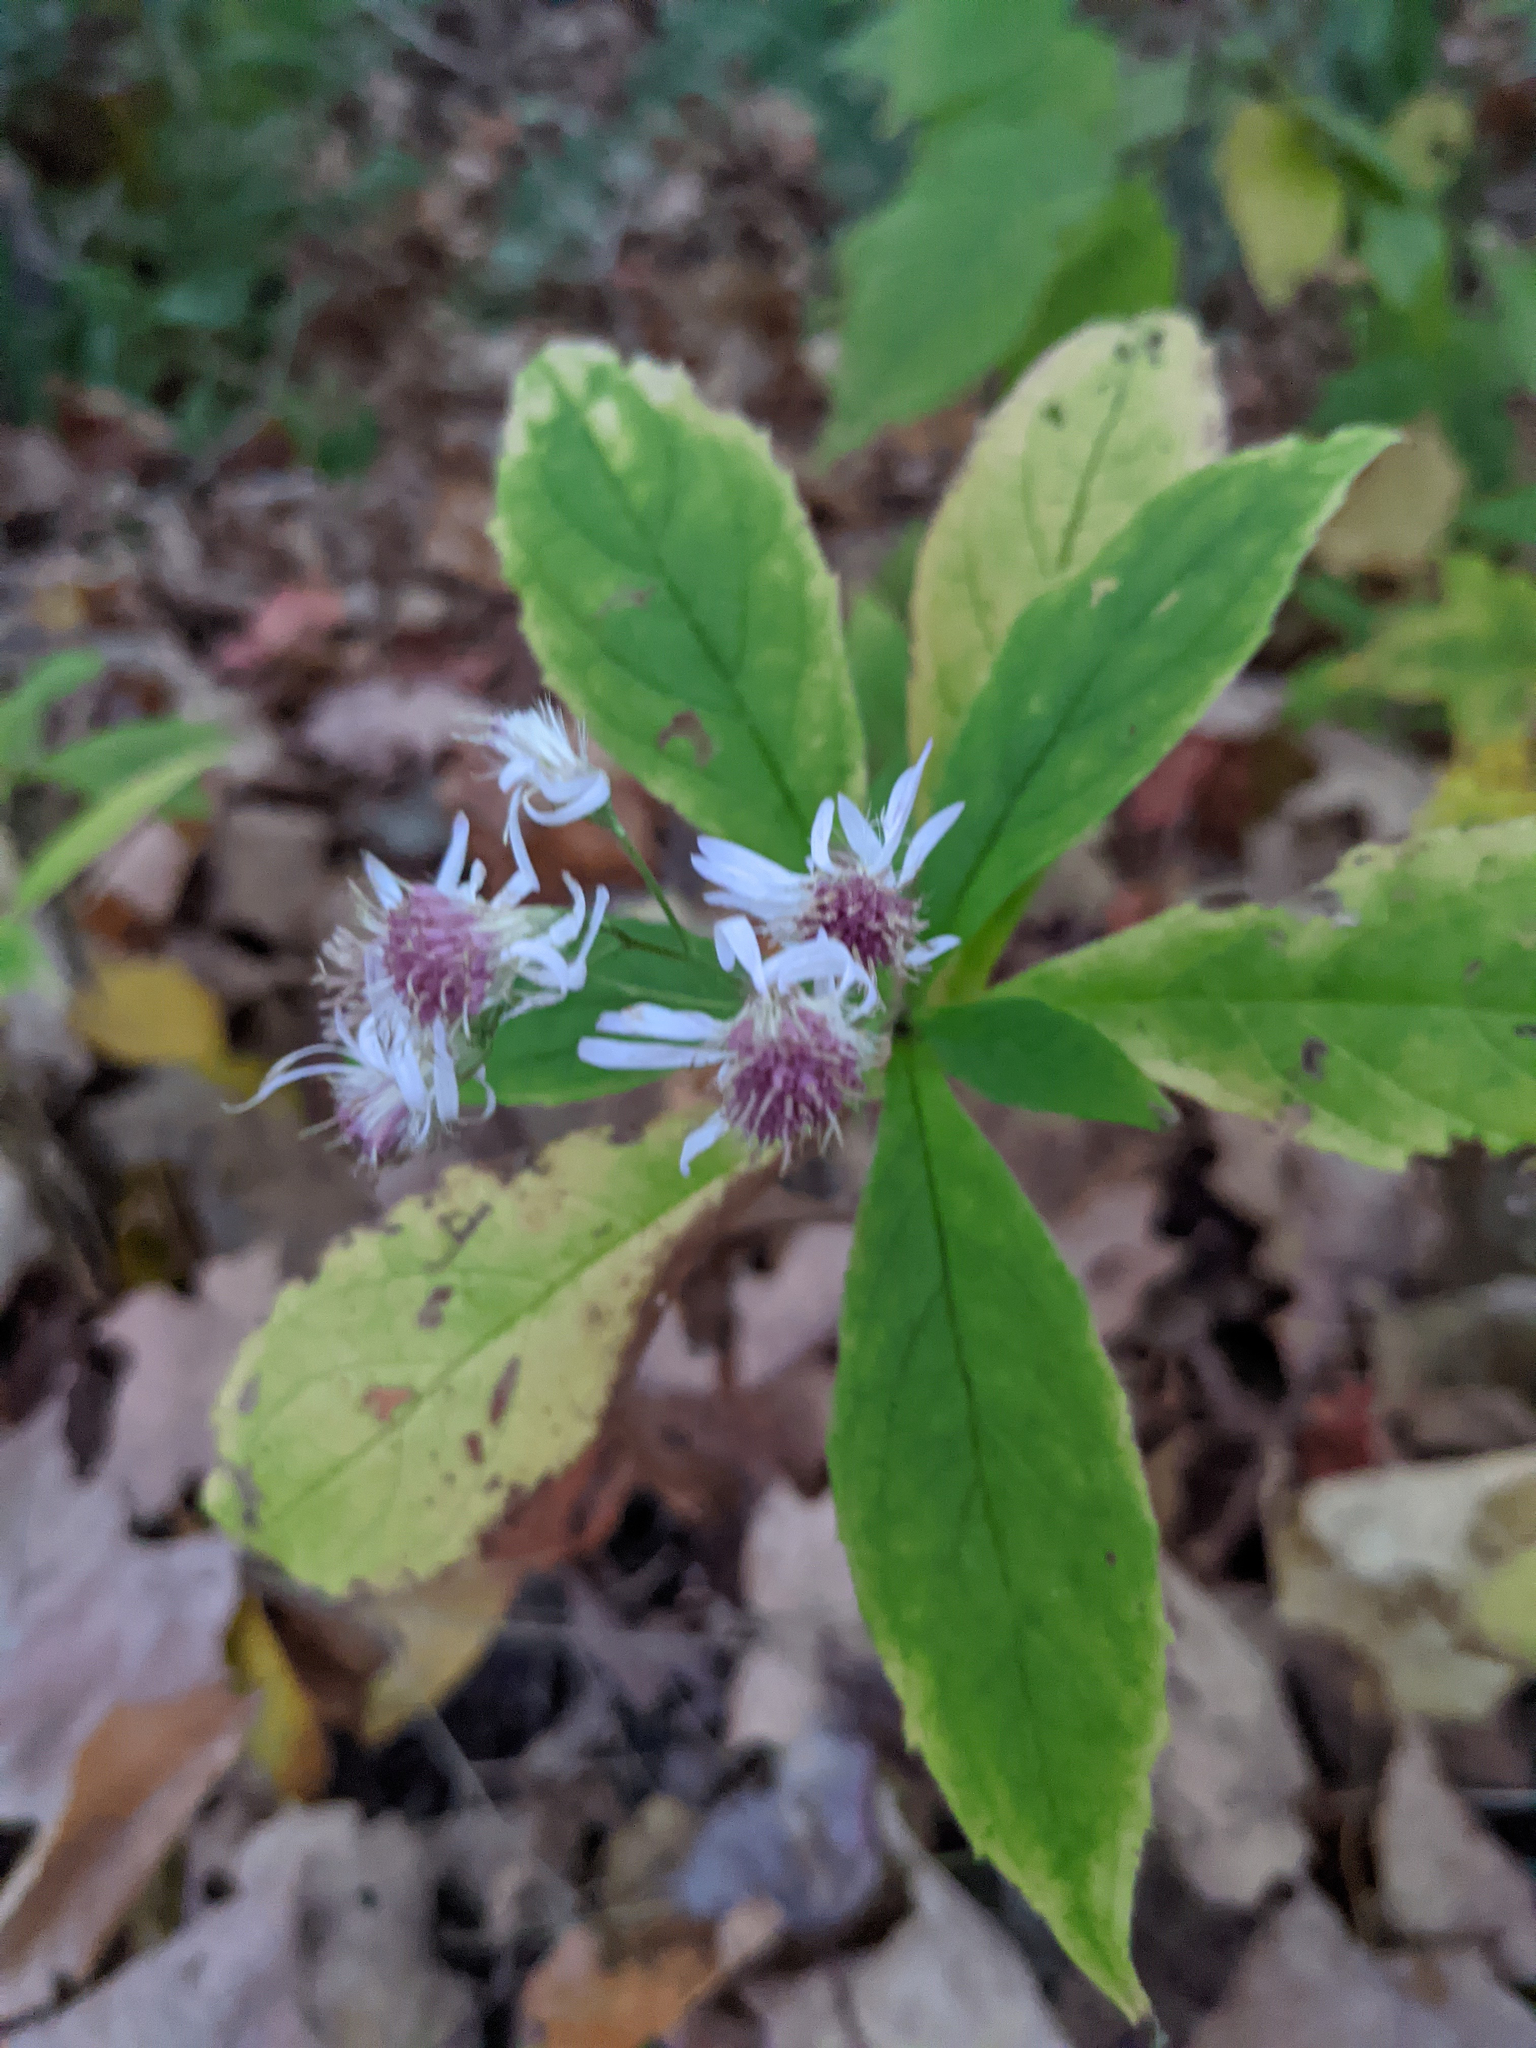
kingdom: Plantae
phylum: Tracheophyta
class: Magnoliopsida
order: Asterales
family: Asteraceae
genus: Oclemena
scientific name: Oclemena acuminata
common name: Mountain aster
